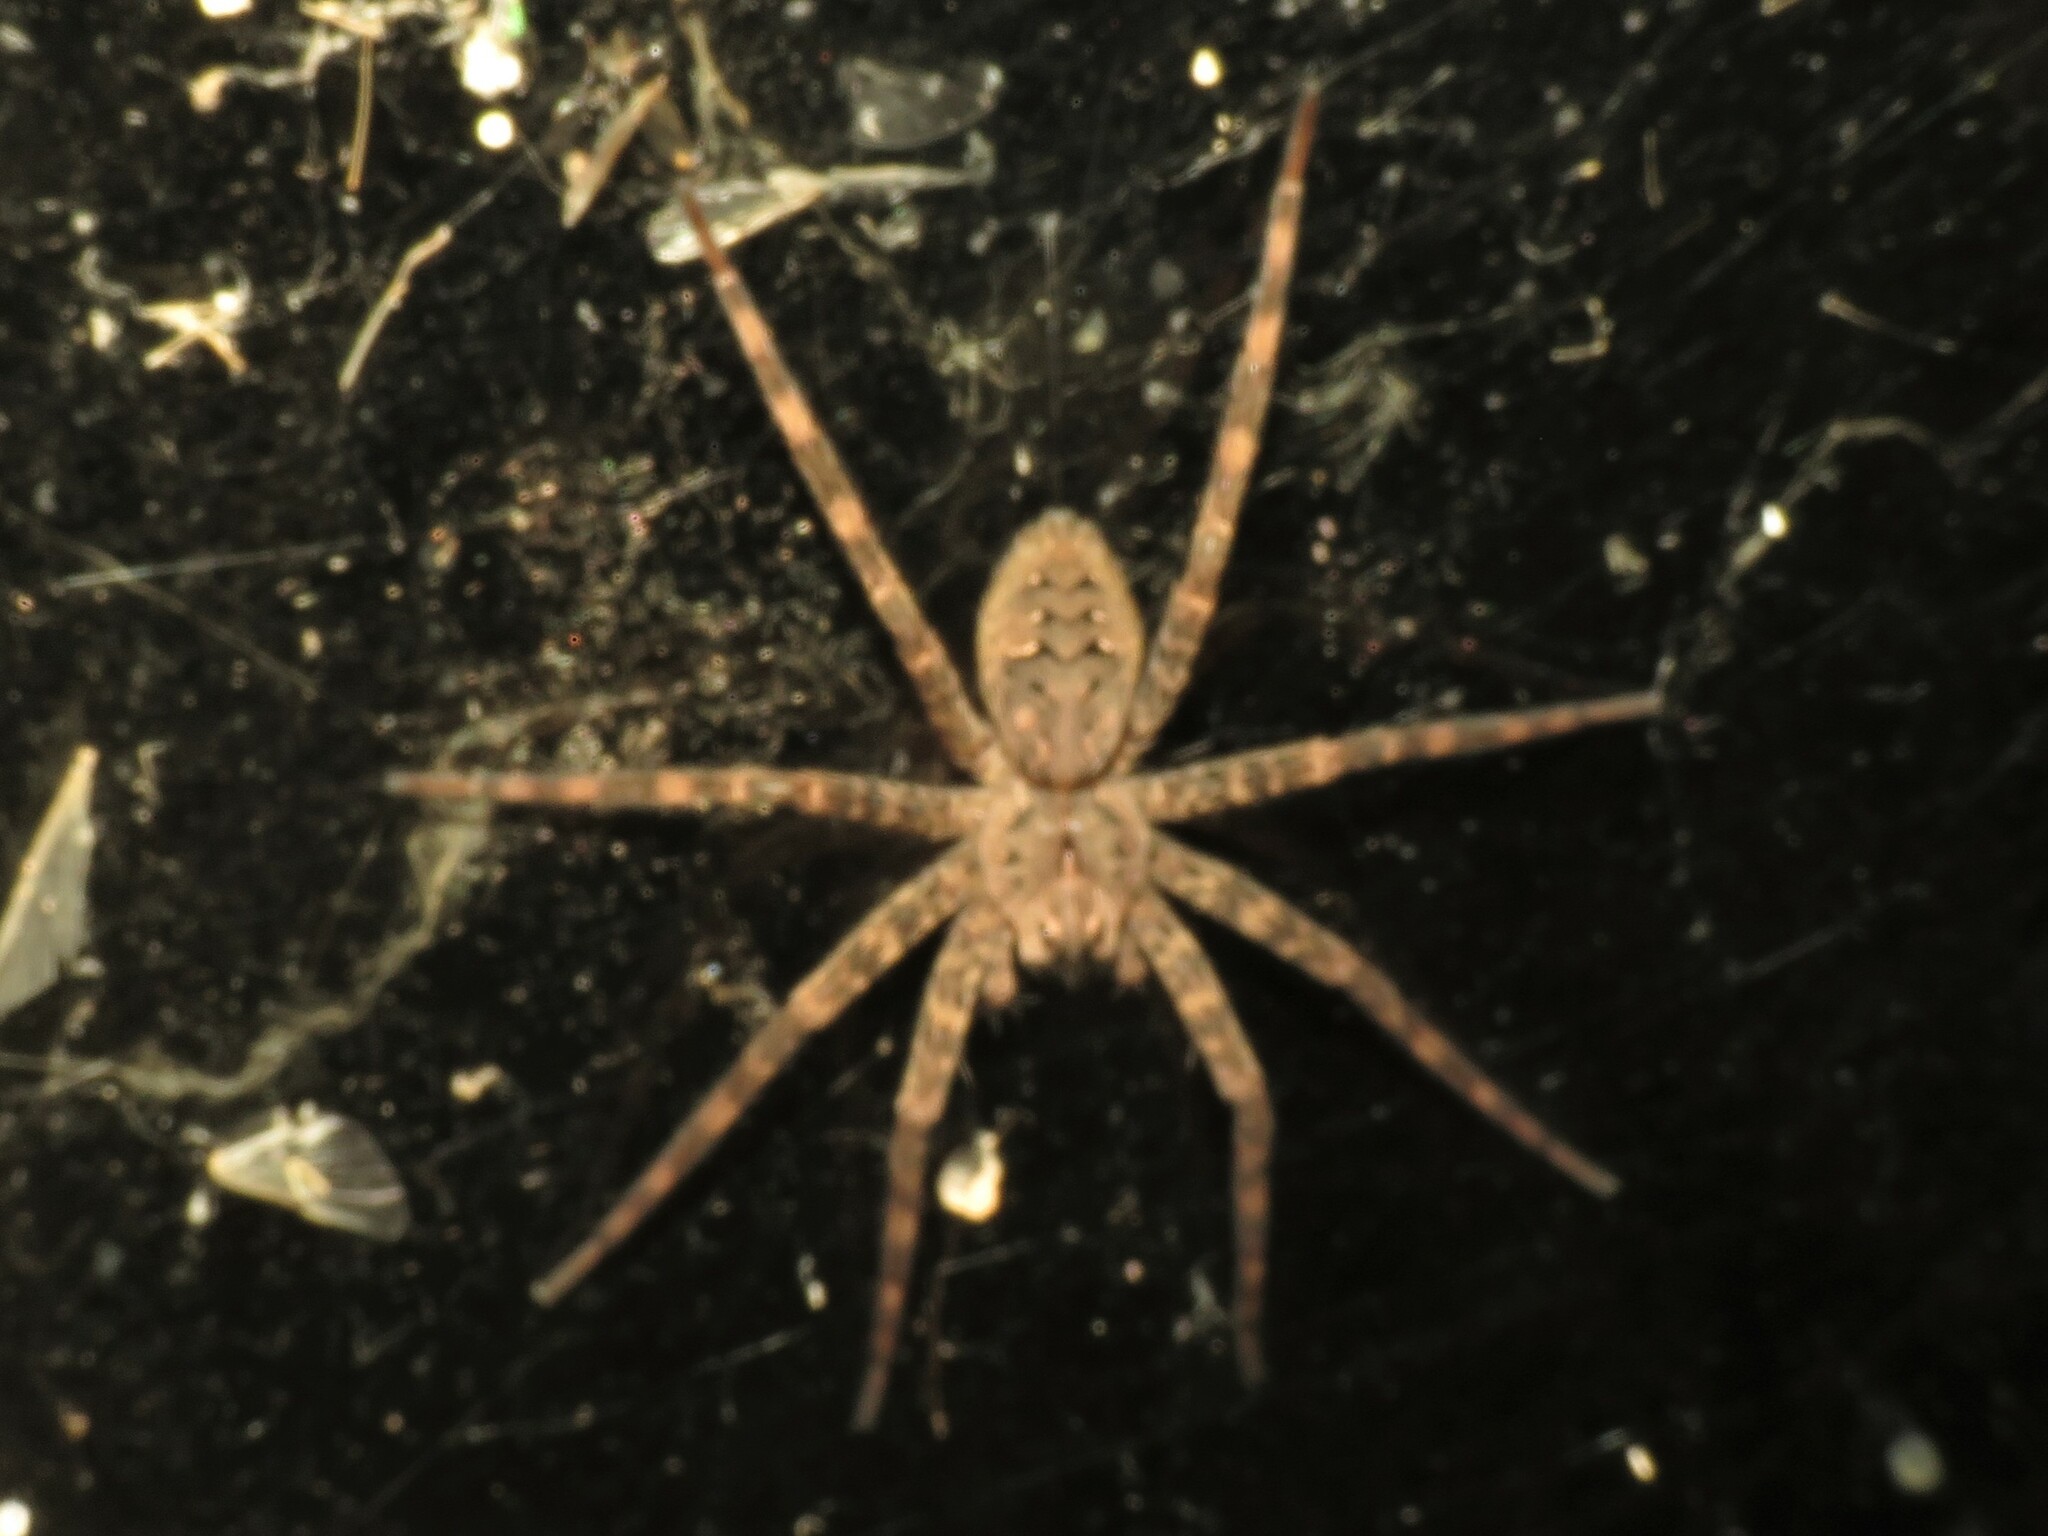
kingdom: Animalia
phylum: Arthropoda
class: Arachnida
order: Araneae
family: Pisauridae
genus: Dolomedes
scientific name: Dolomedes tenebrosus
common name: Dark fishing spider
